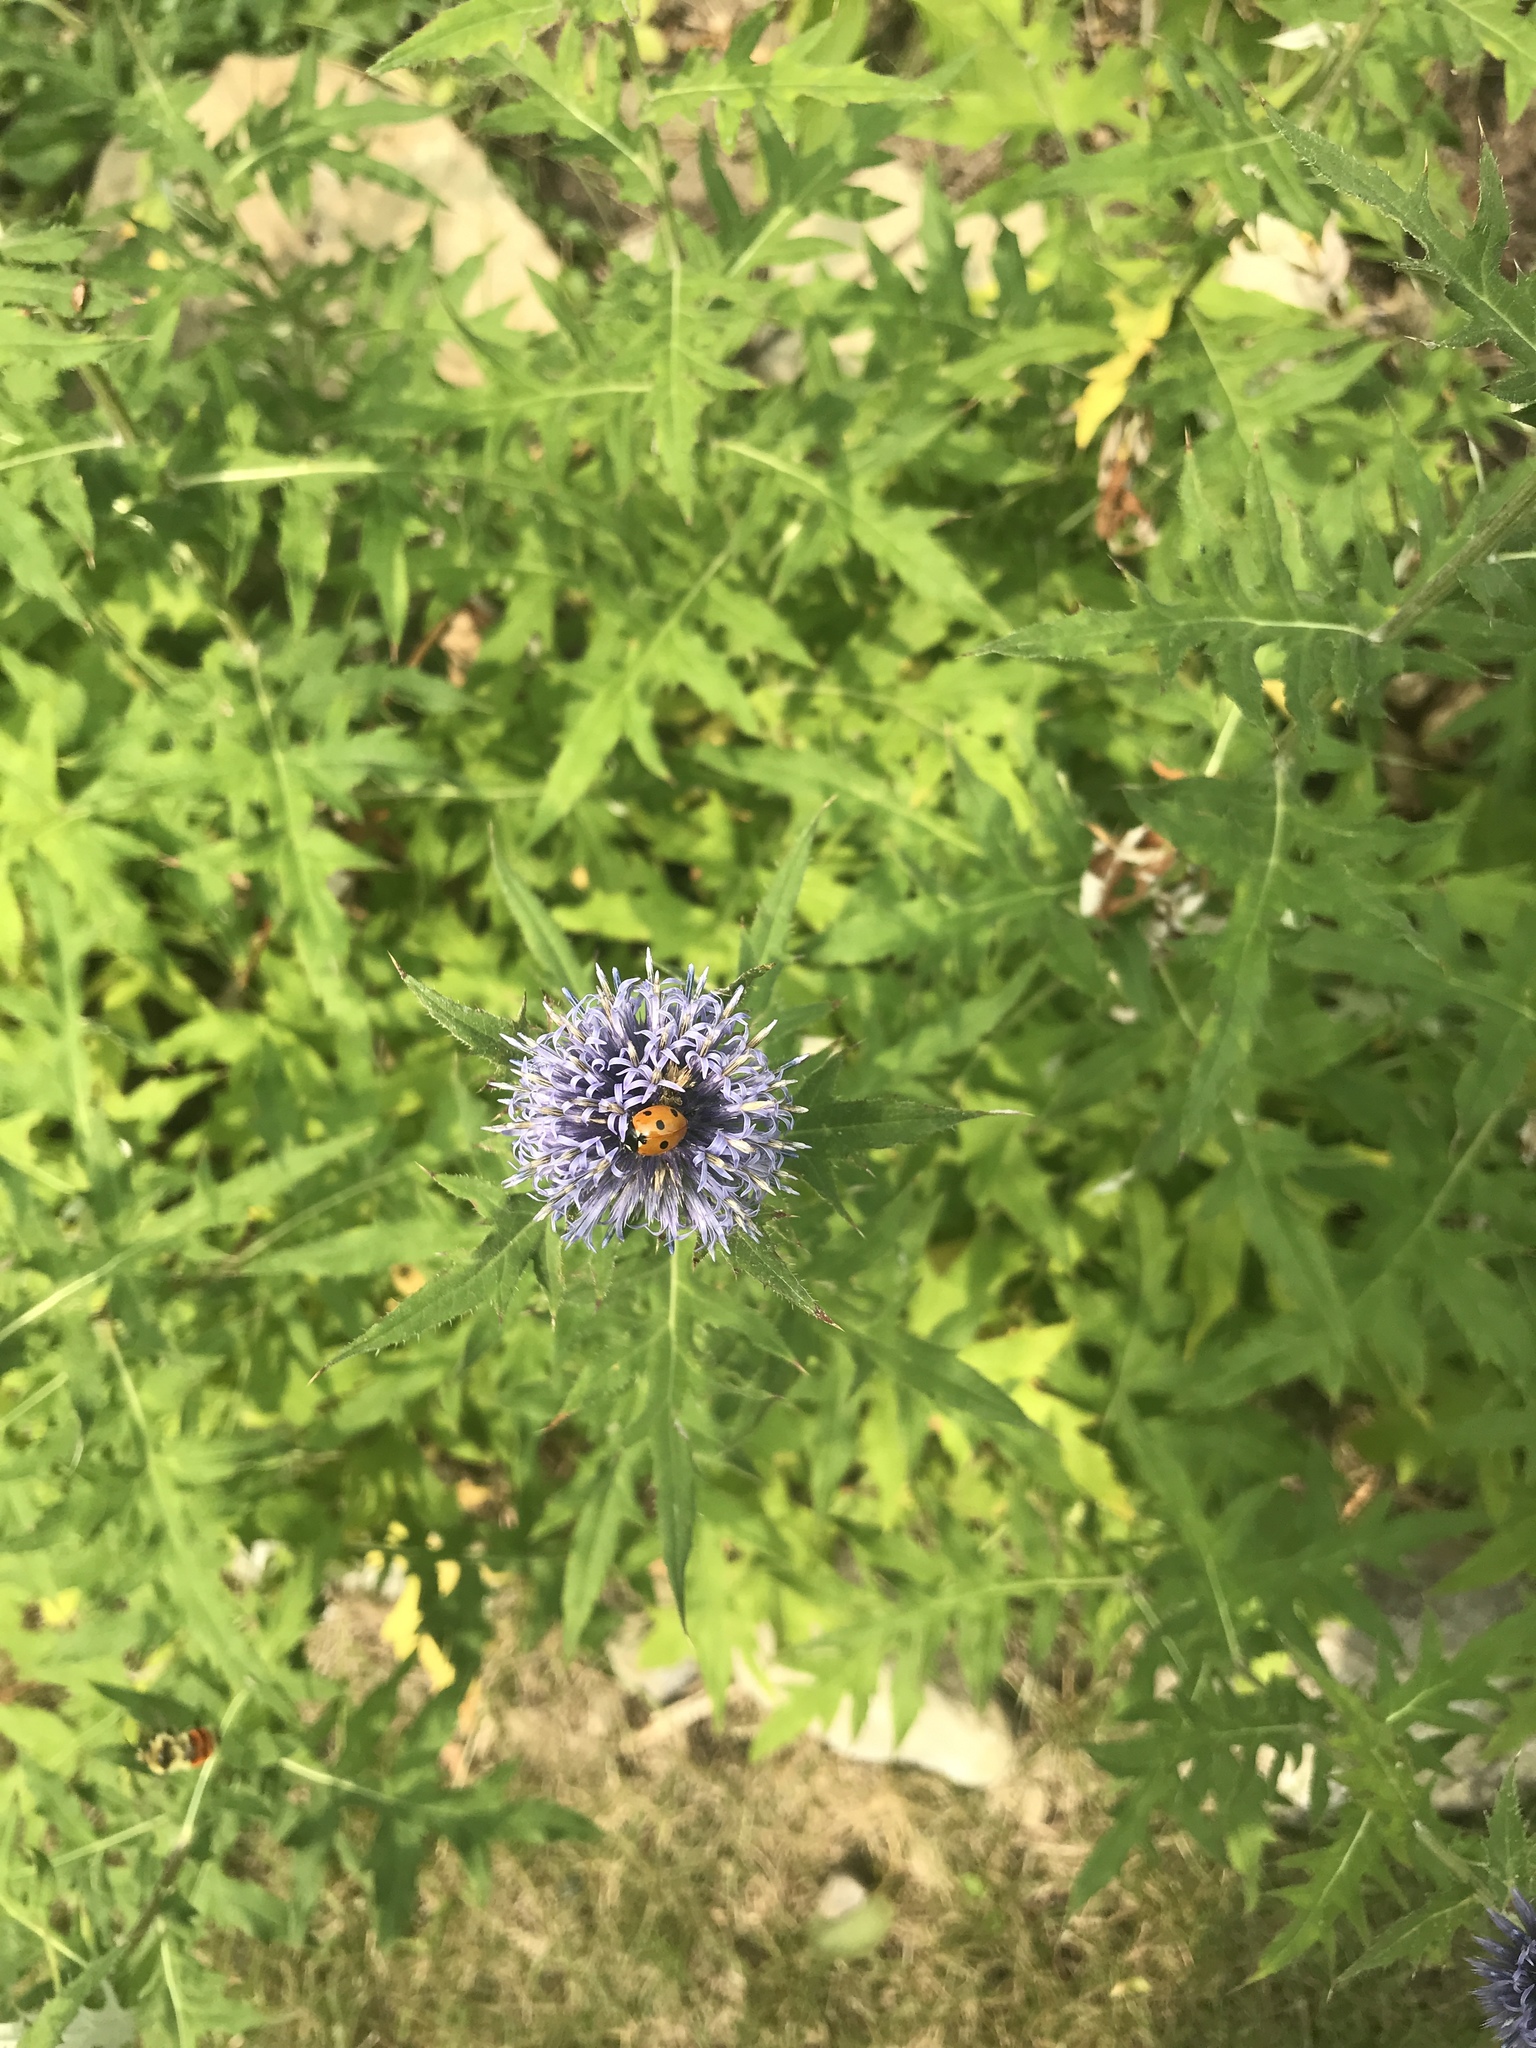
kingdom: Animalia
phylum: Arthropoda
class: Insecta
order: Coleoptera
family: Coccinellidae
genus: Coccinella
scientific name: Coccinella septempunctata
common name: Sevenspotted lady beetle
